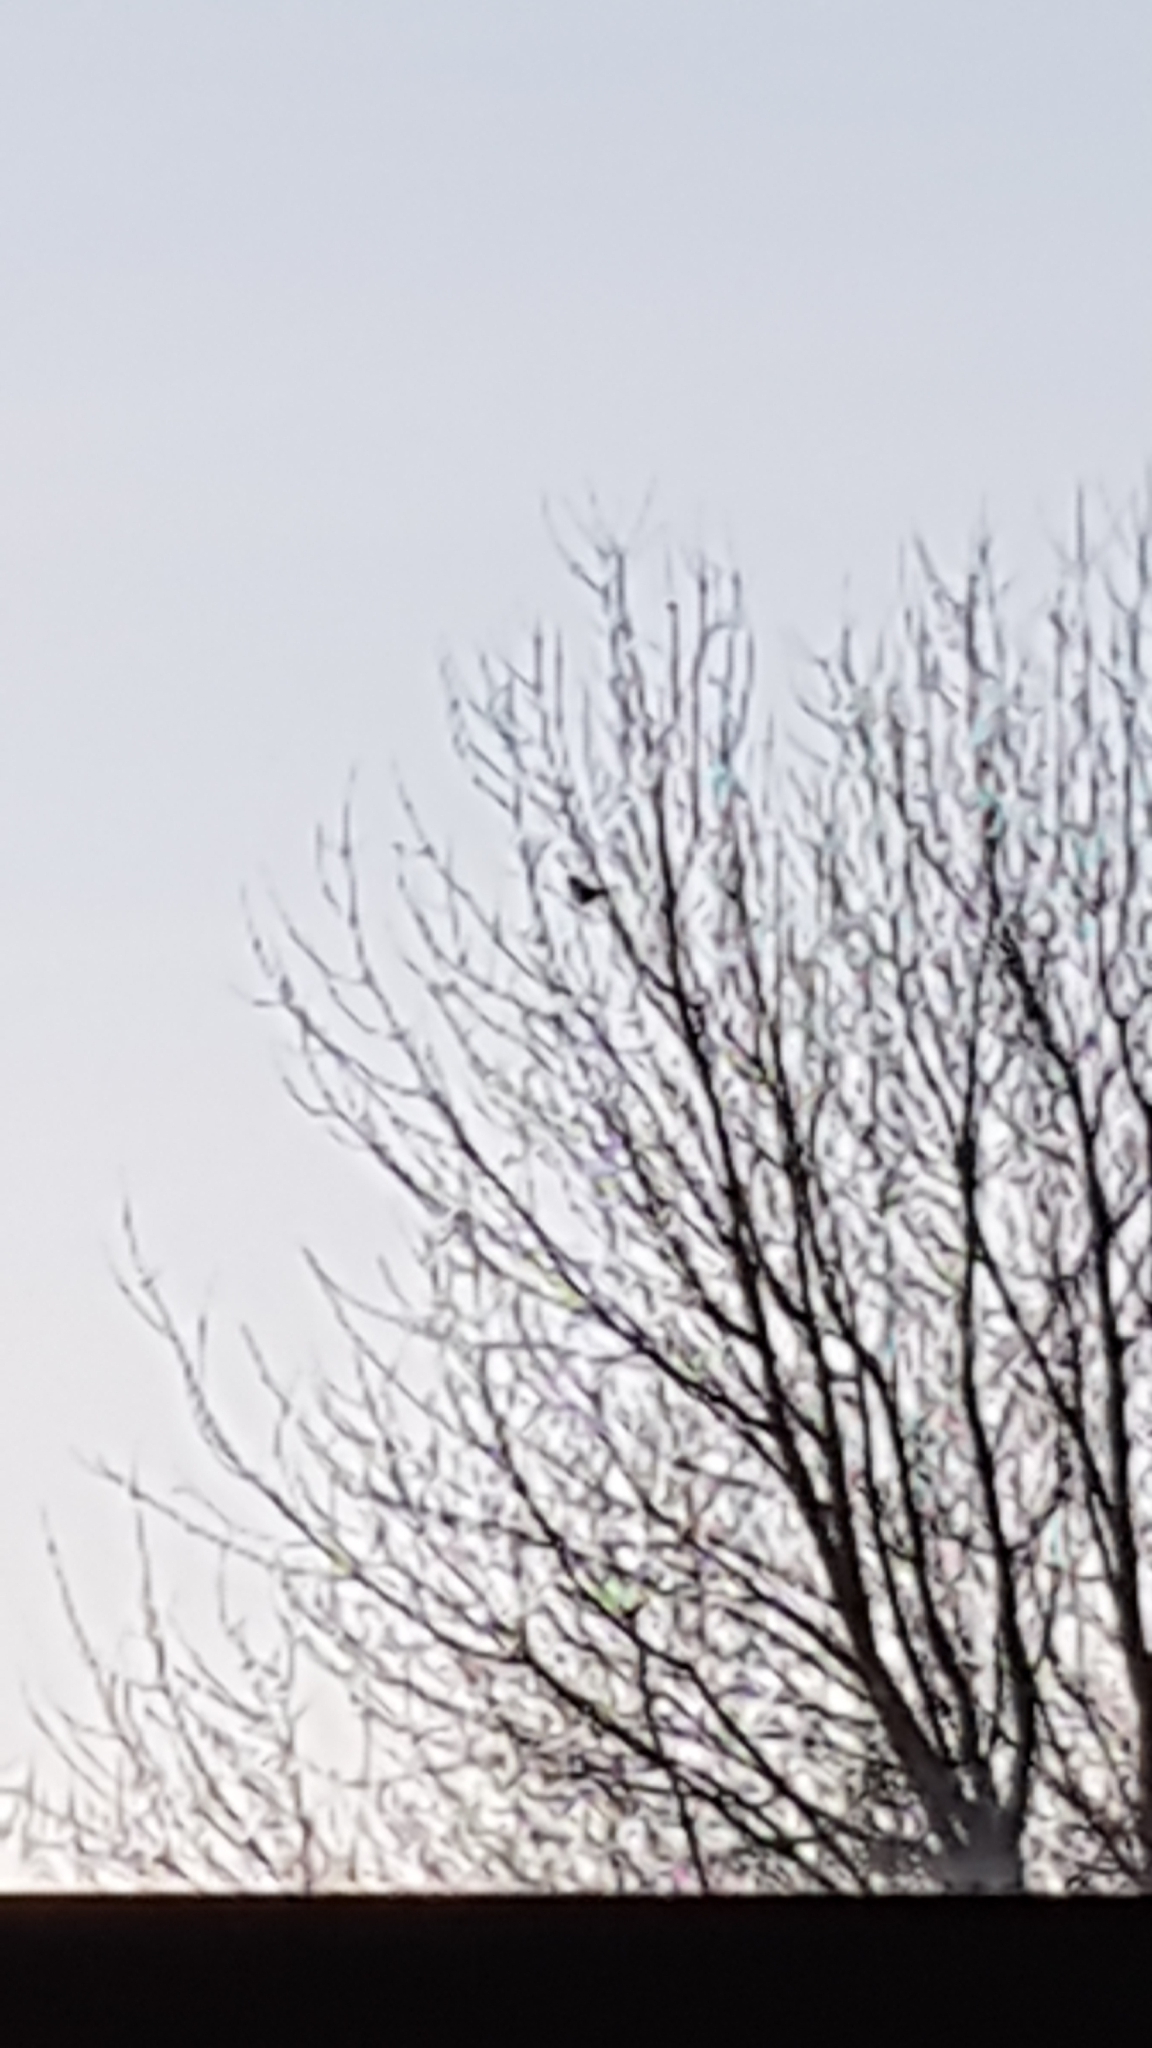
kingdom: Animalia
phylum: Chordata
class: Aves
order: Passeriformes
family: Corvidae
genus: Pica
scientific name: Pica pica
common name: Eurasian magpie
